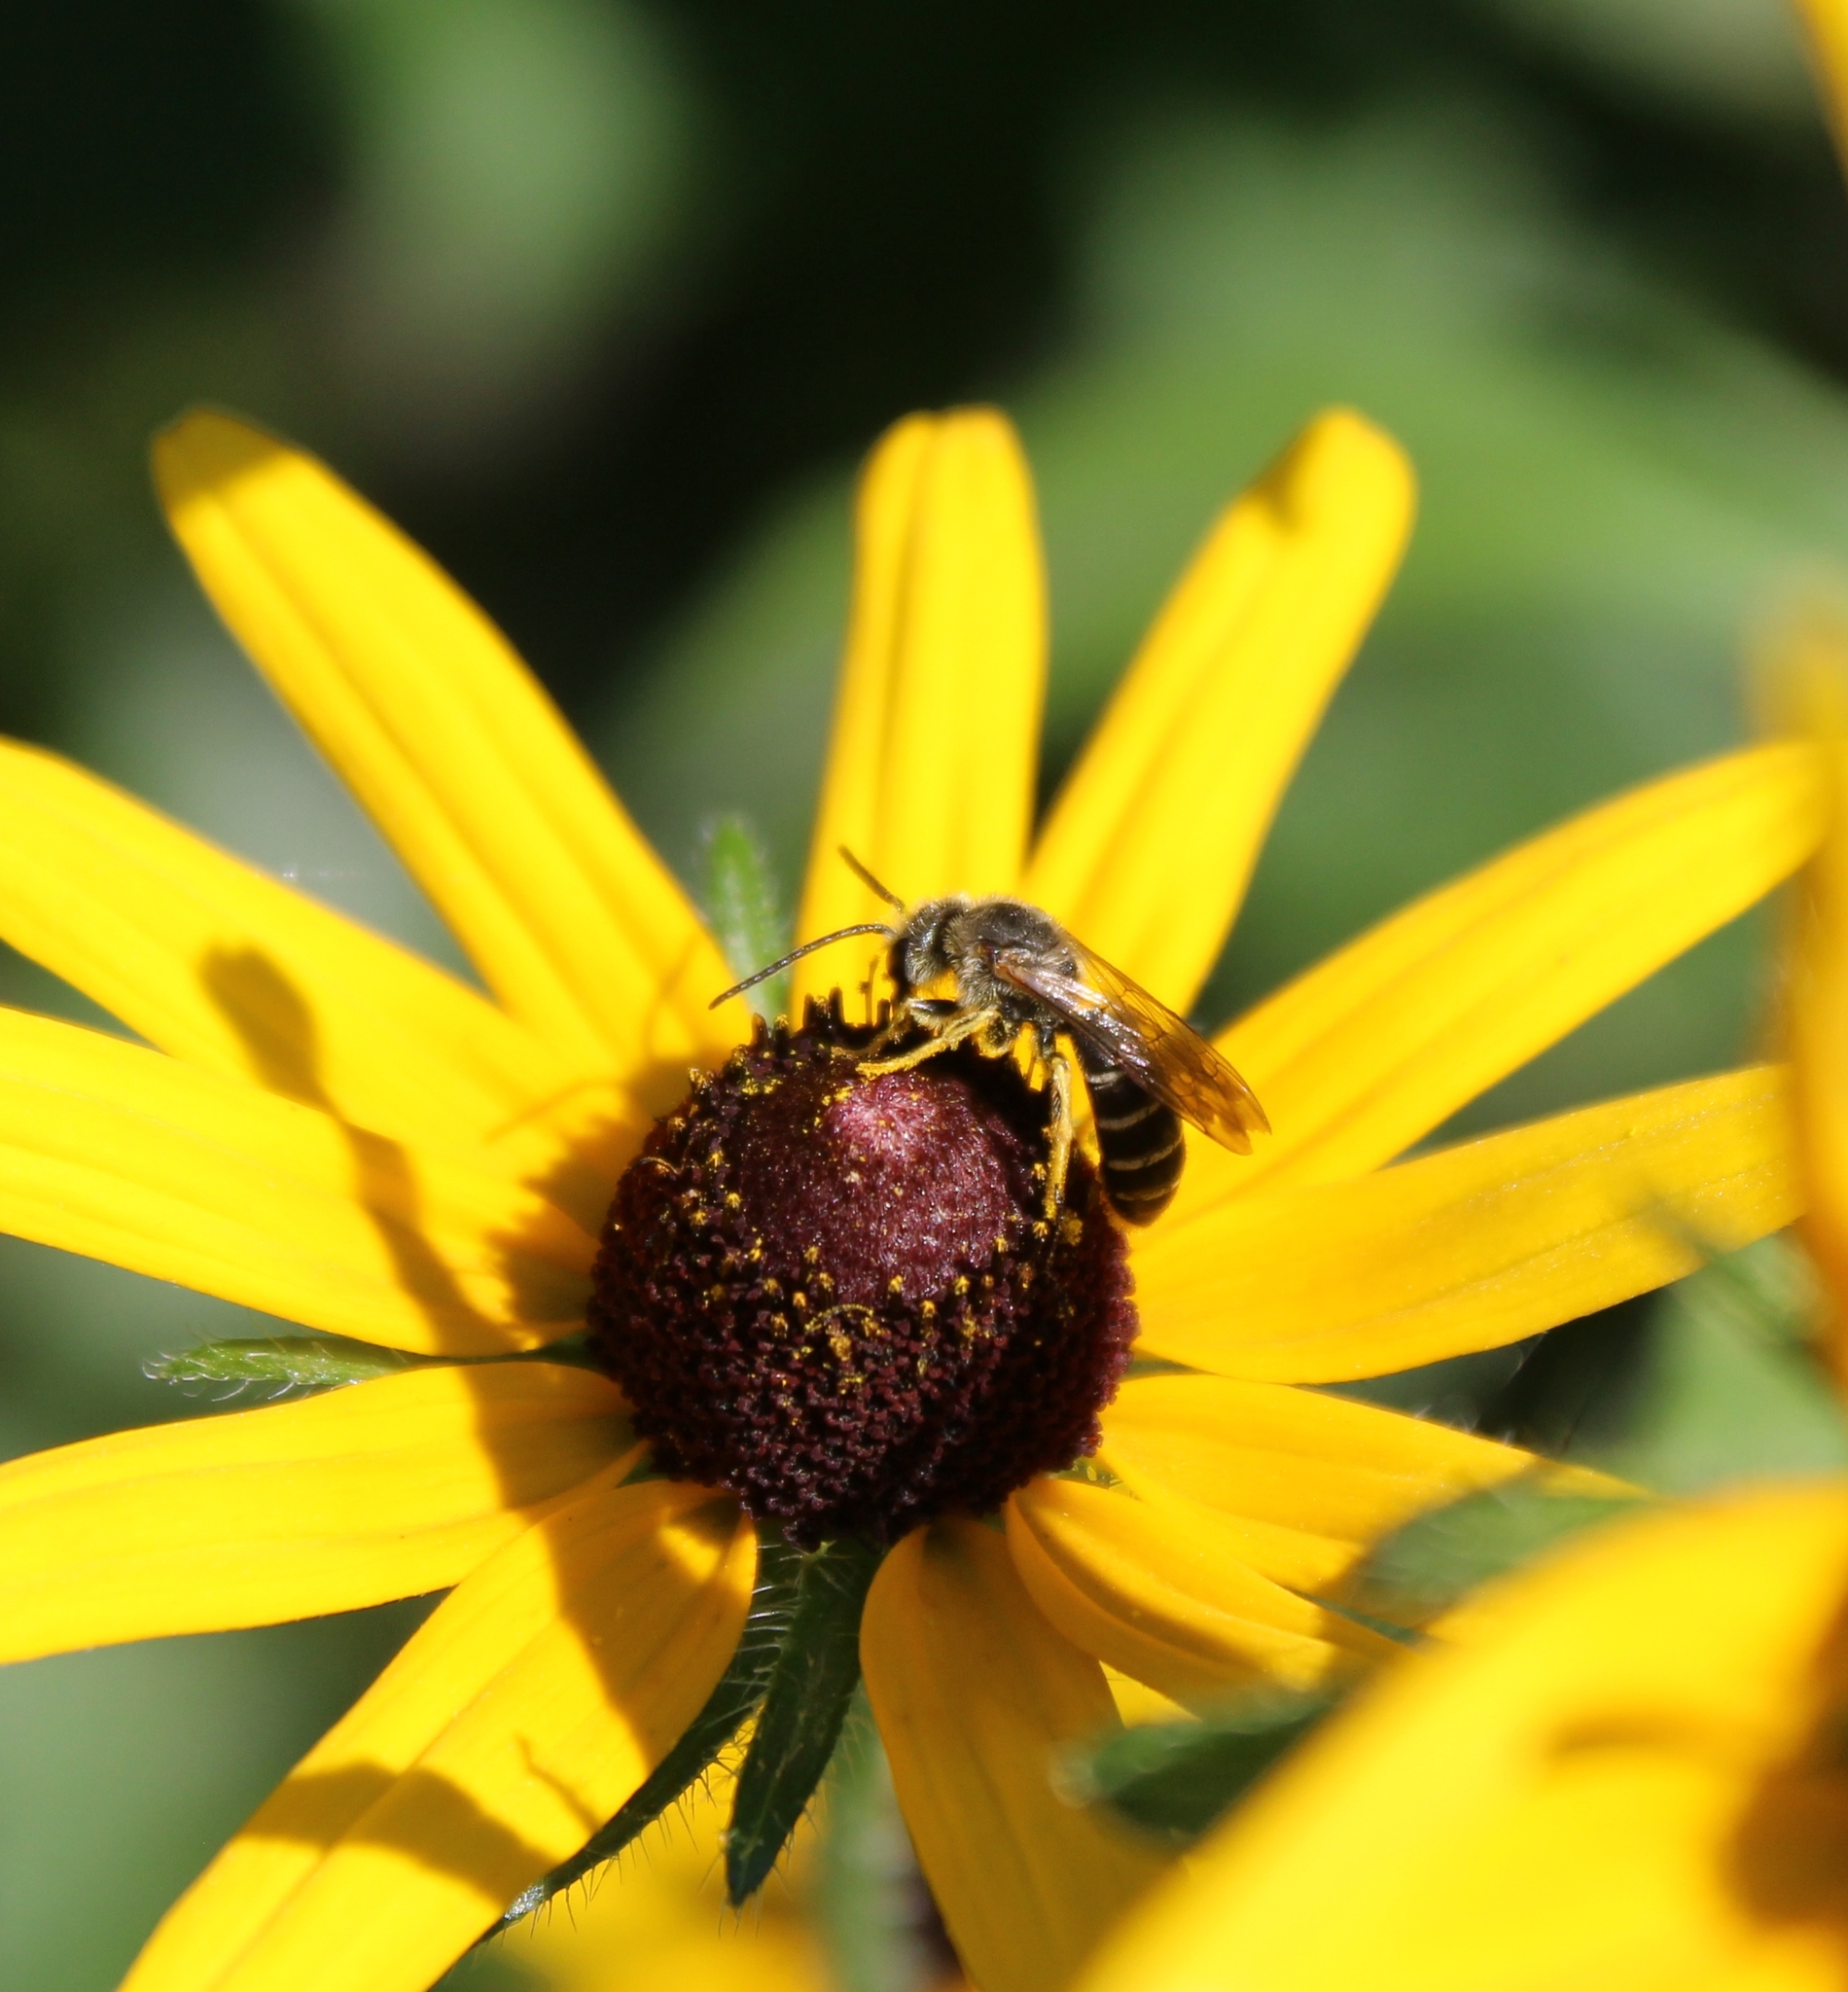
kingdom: Animalia
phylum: Arthropoda
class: Insecta
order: Hymenoptera
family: Halictidae
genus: Halictus
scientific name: Halictus rubicundus
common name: Orange-legged furrow bee
